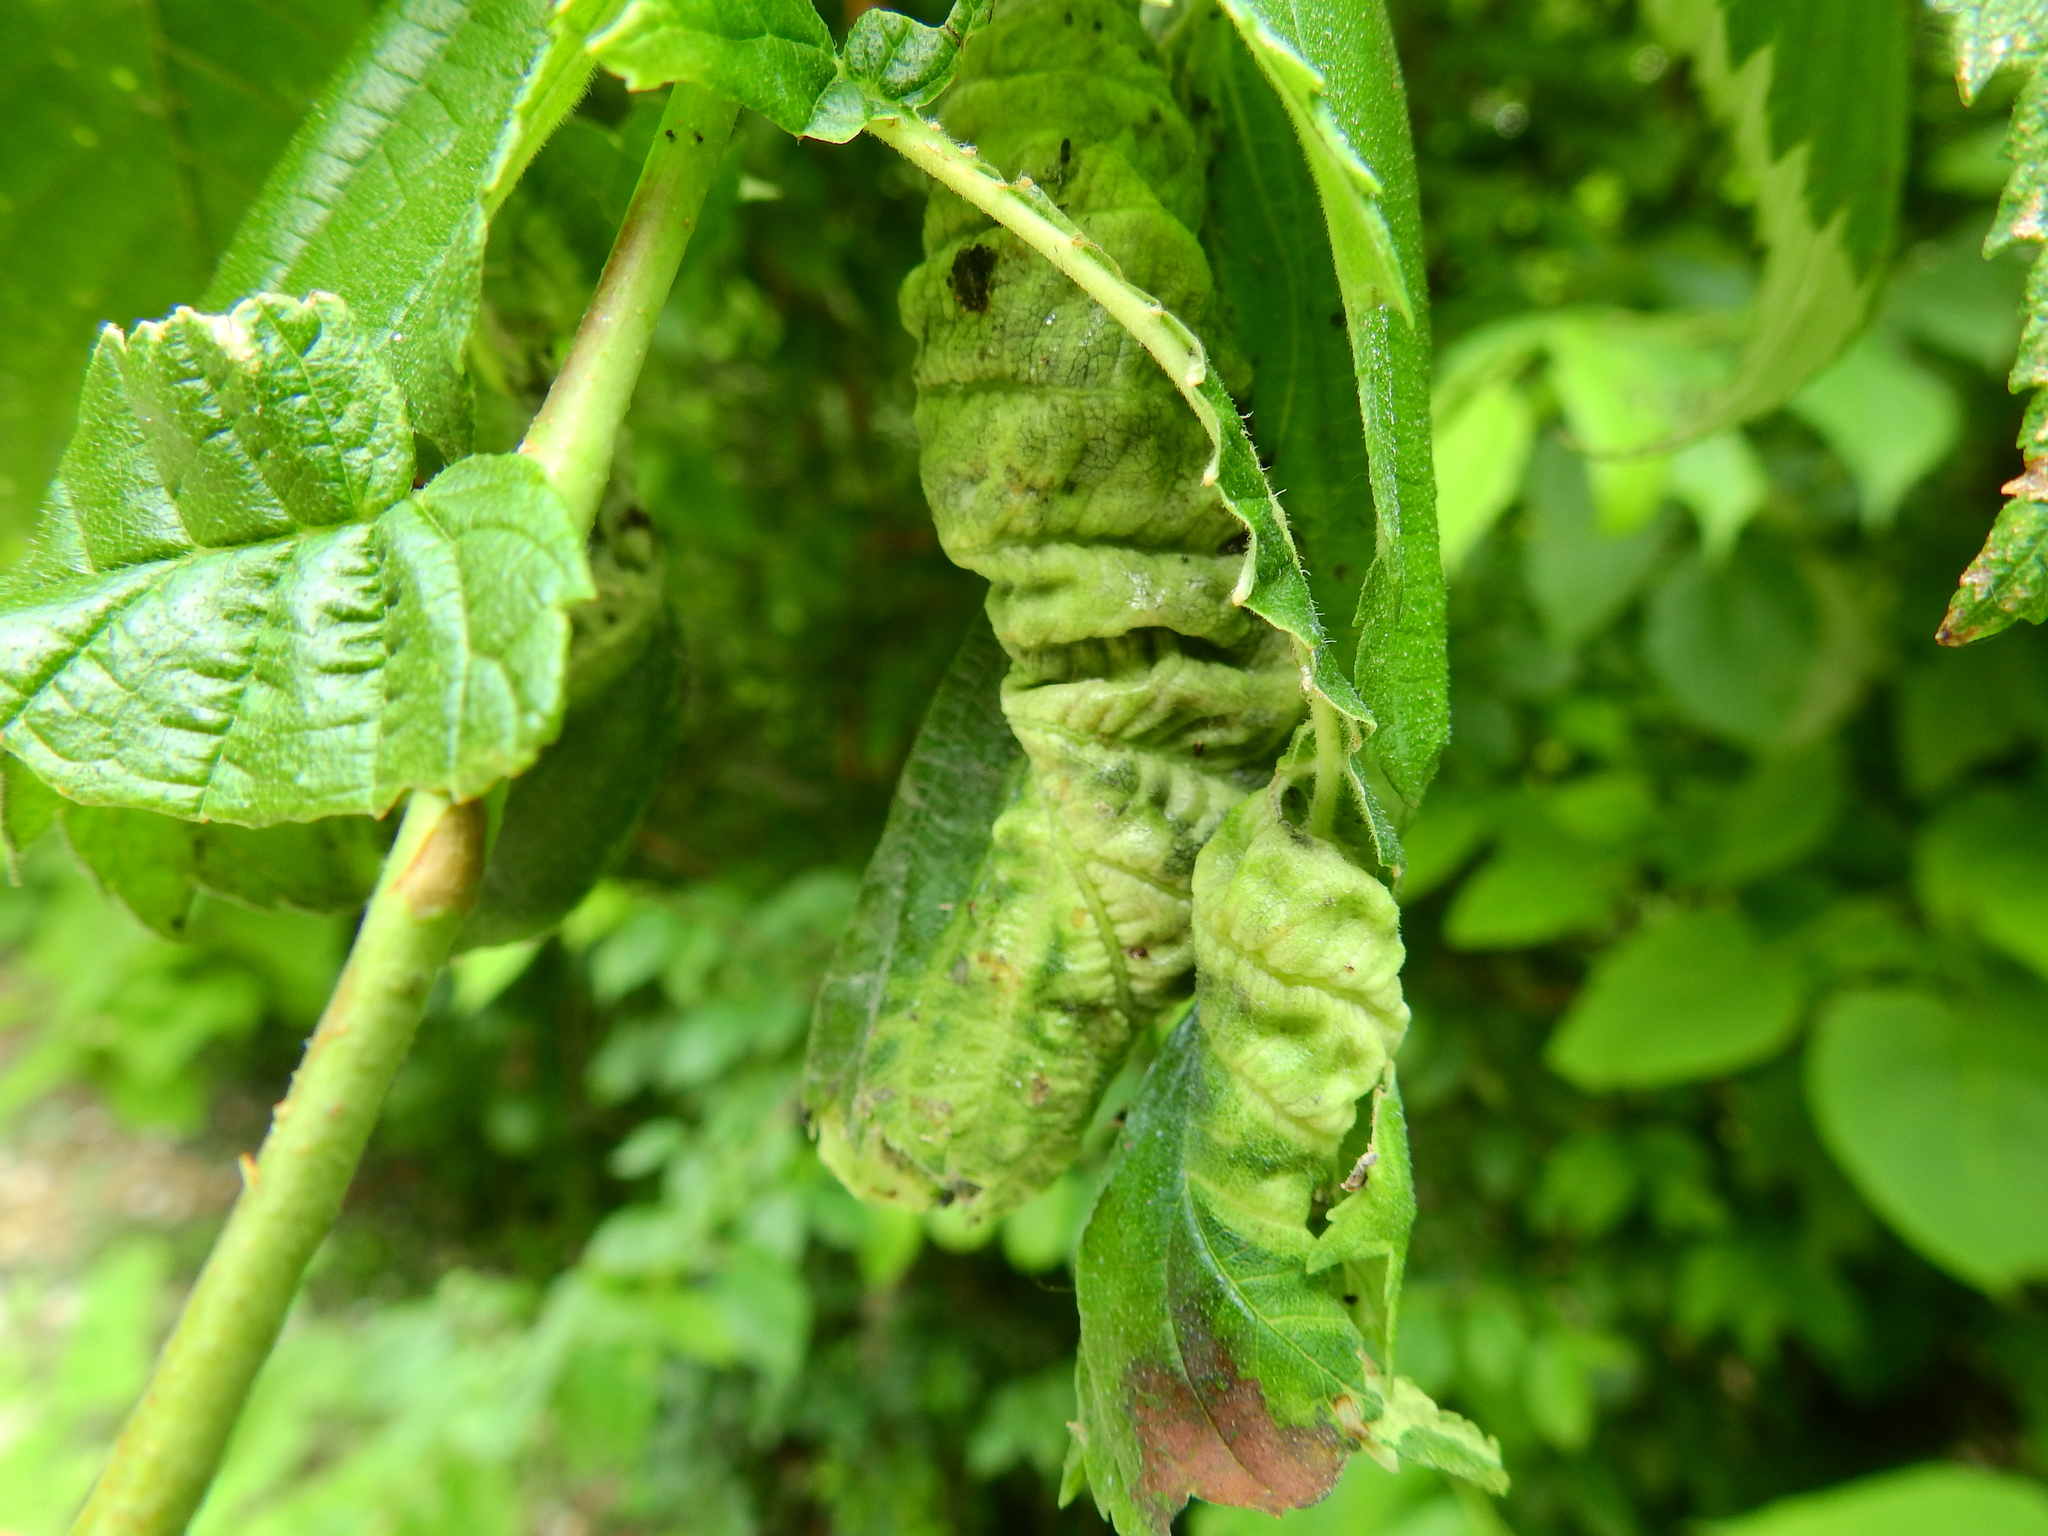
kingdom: Animalia
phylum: Arthropoda
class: Insecta
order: Hemiptera
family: Aphididae
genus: Eriosoma
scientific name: Eriosoma americanum
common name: Woolly elm aphid
